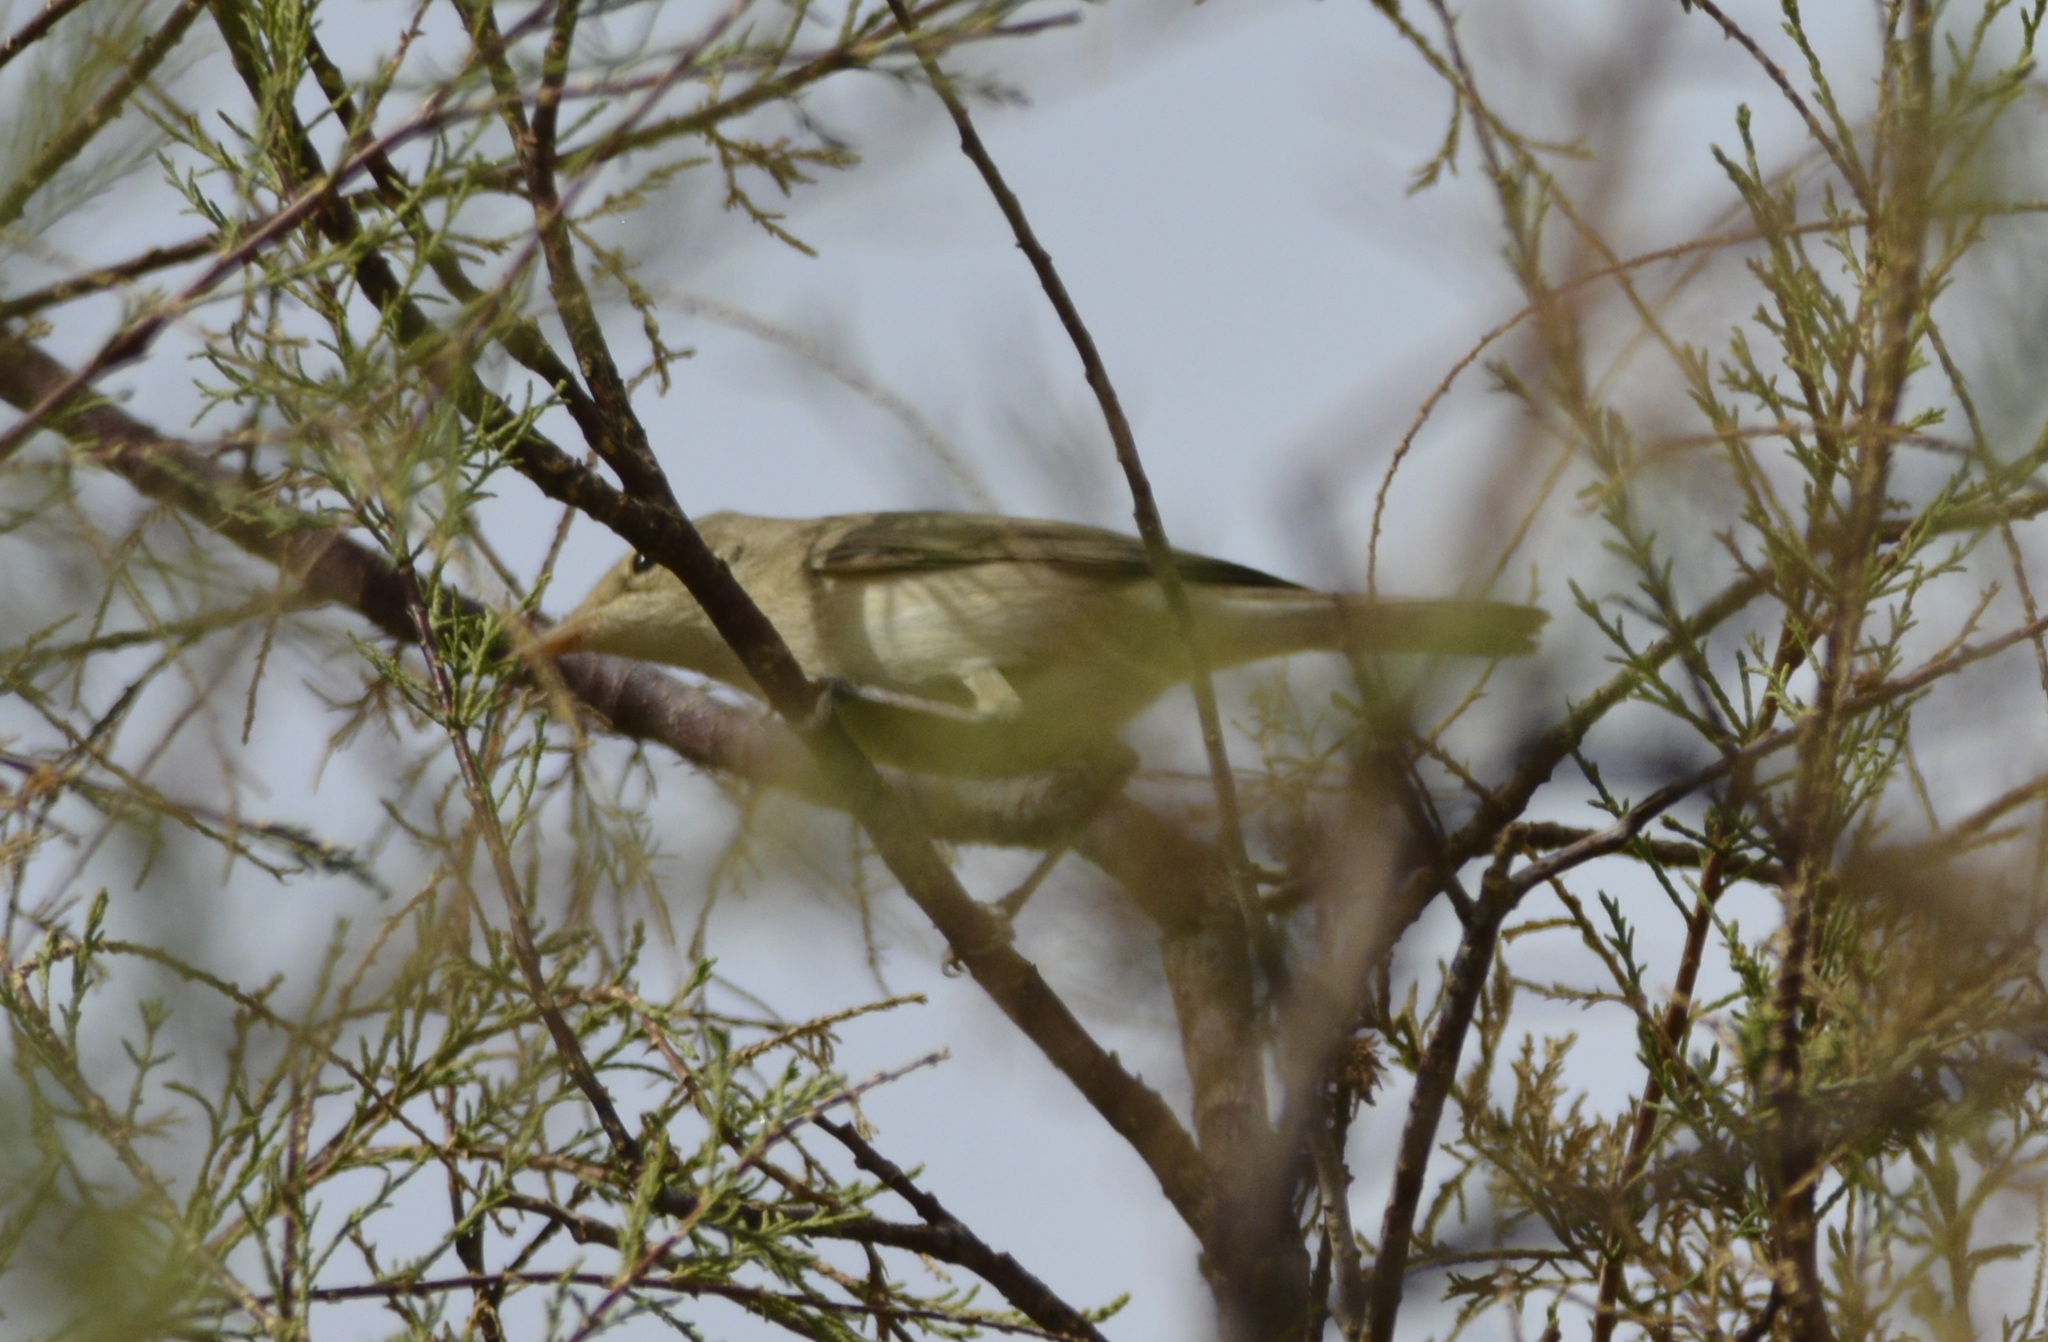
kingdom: Animalia
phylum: Chordata
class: Aves
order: Passeriformes
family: Acrocephalidae
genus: Iduna
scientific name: Iduna pallida
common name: Eastern olivaceous warbler
